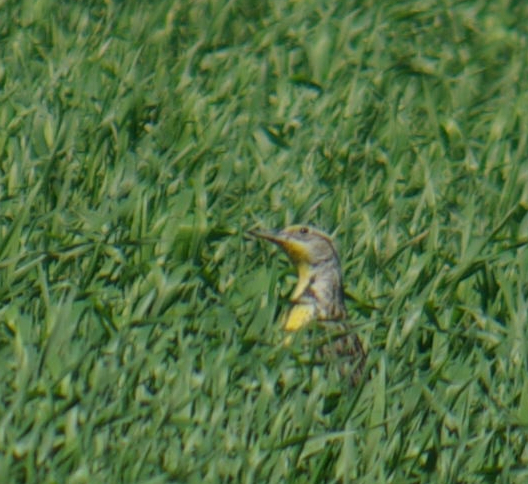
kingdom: Animalia
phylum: Chordata
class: Aves
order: Passeriformes
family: Icteridae
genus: Sturnella
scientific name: Sturnella neglecta
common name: Western meadowlark
